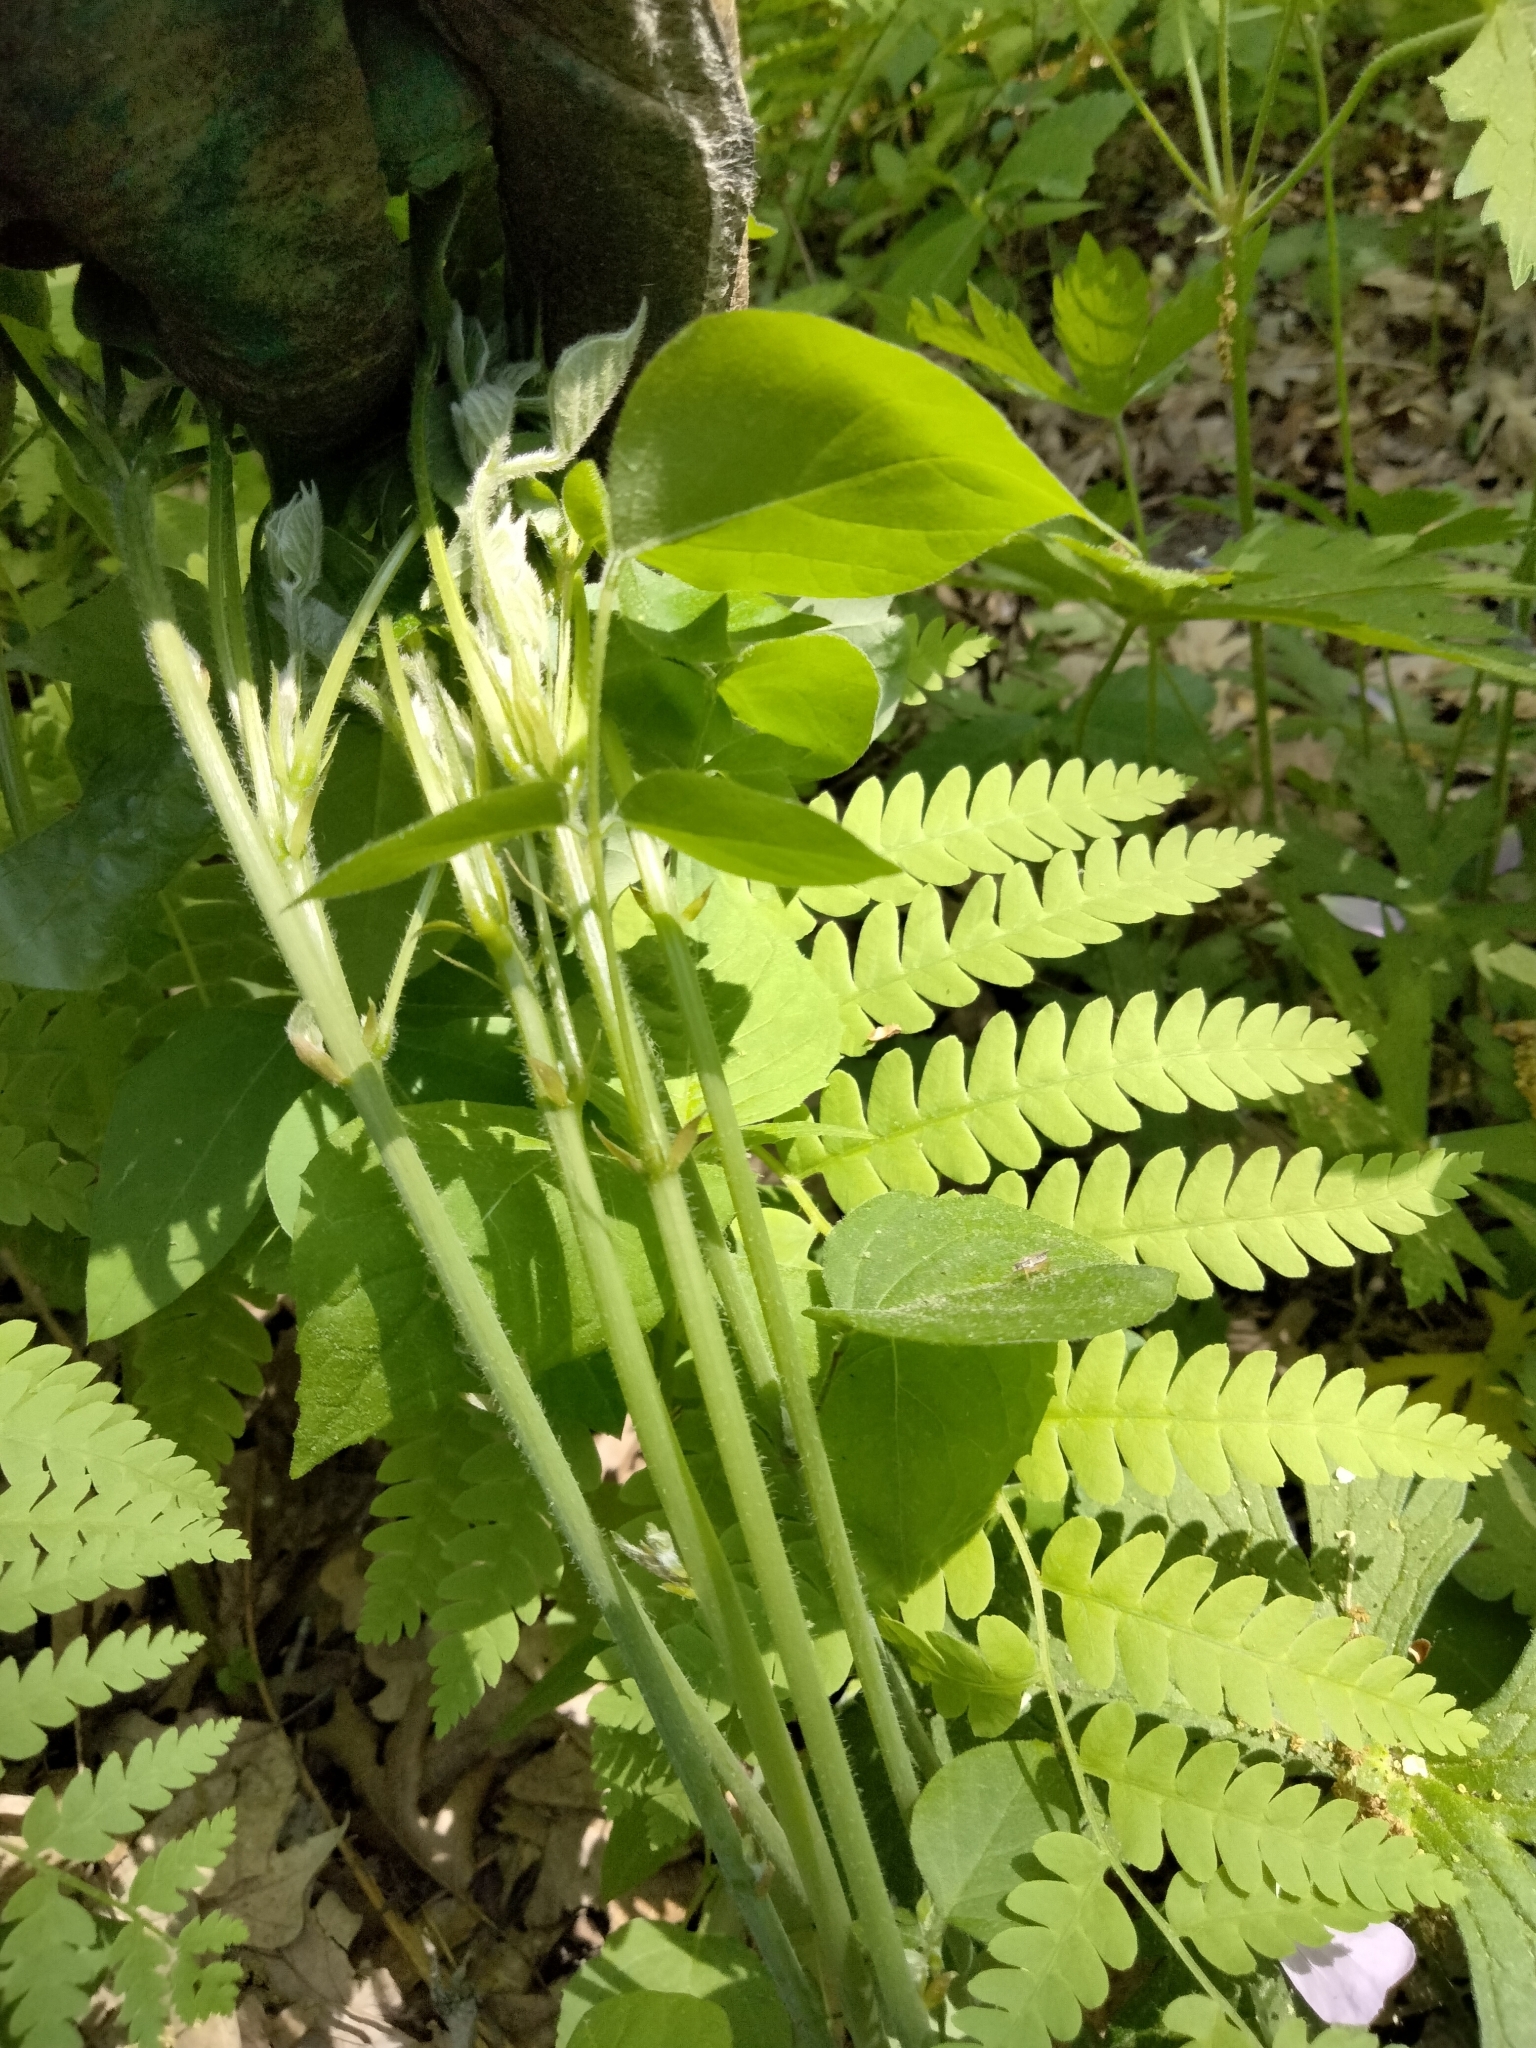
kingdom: Plantae
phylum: Tracheophyta
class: Magnoliopsida
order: Fabales
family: Fabaceae
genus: Hylodesmum
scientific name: Hylodesmum glutinosum
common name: Clustered-leaved tick-trefoil
